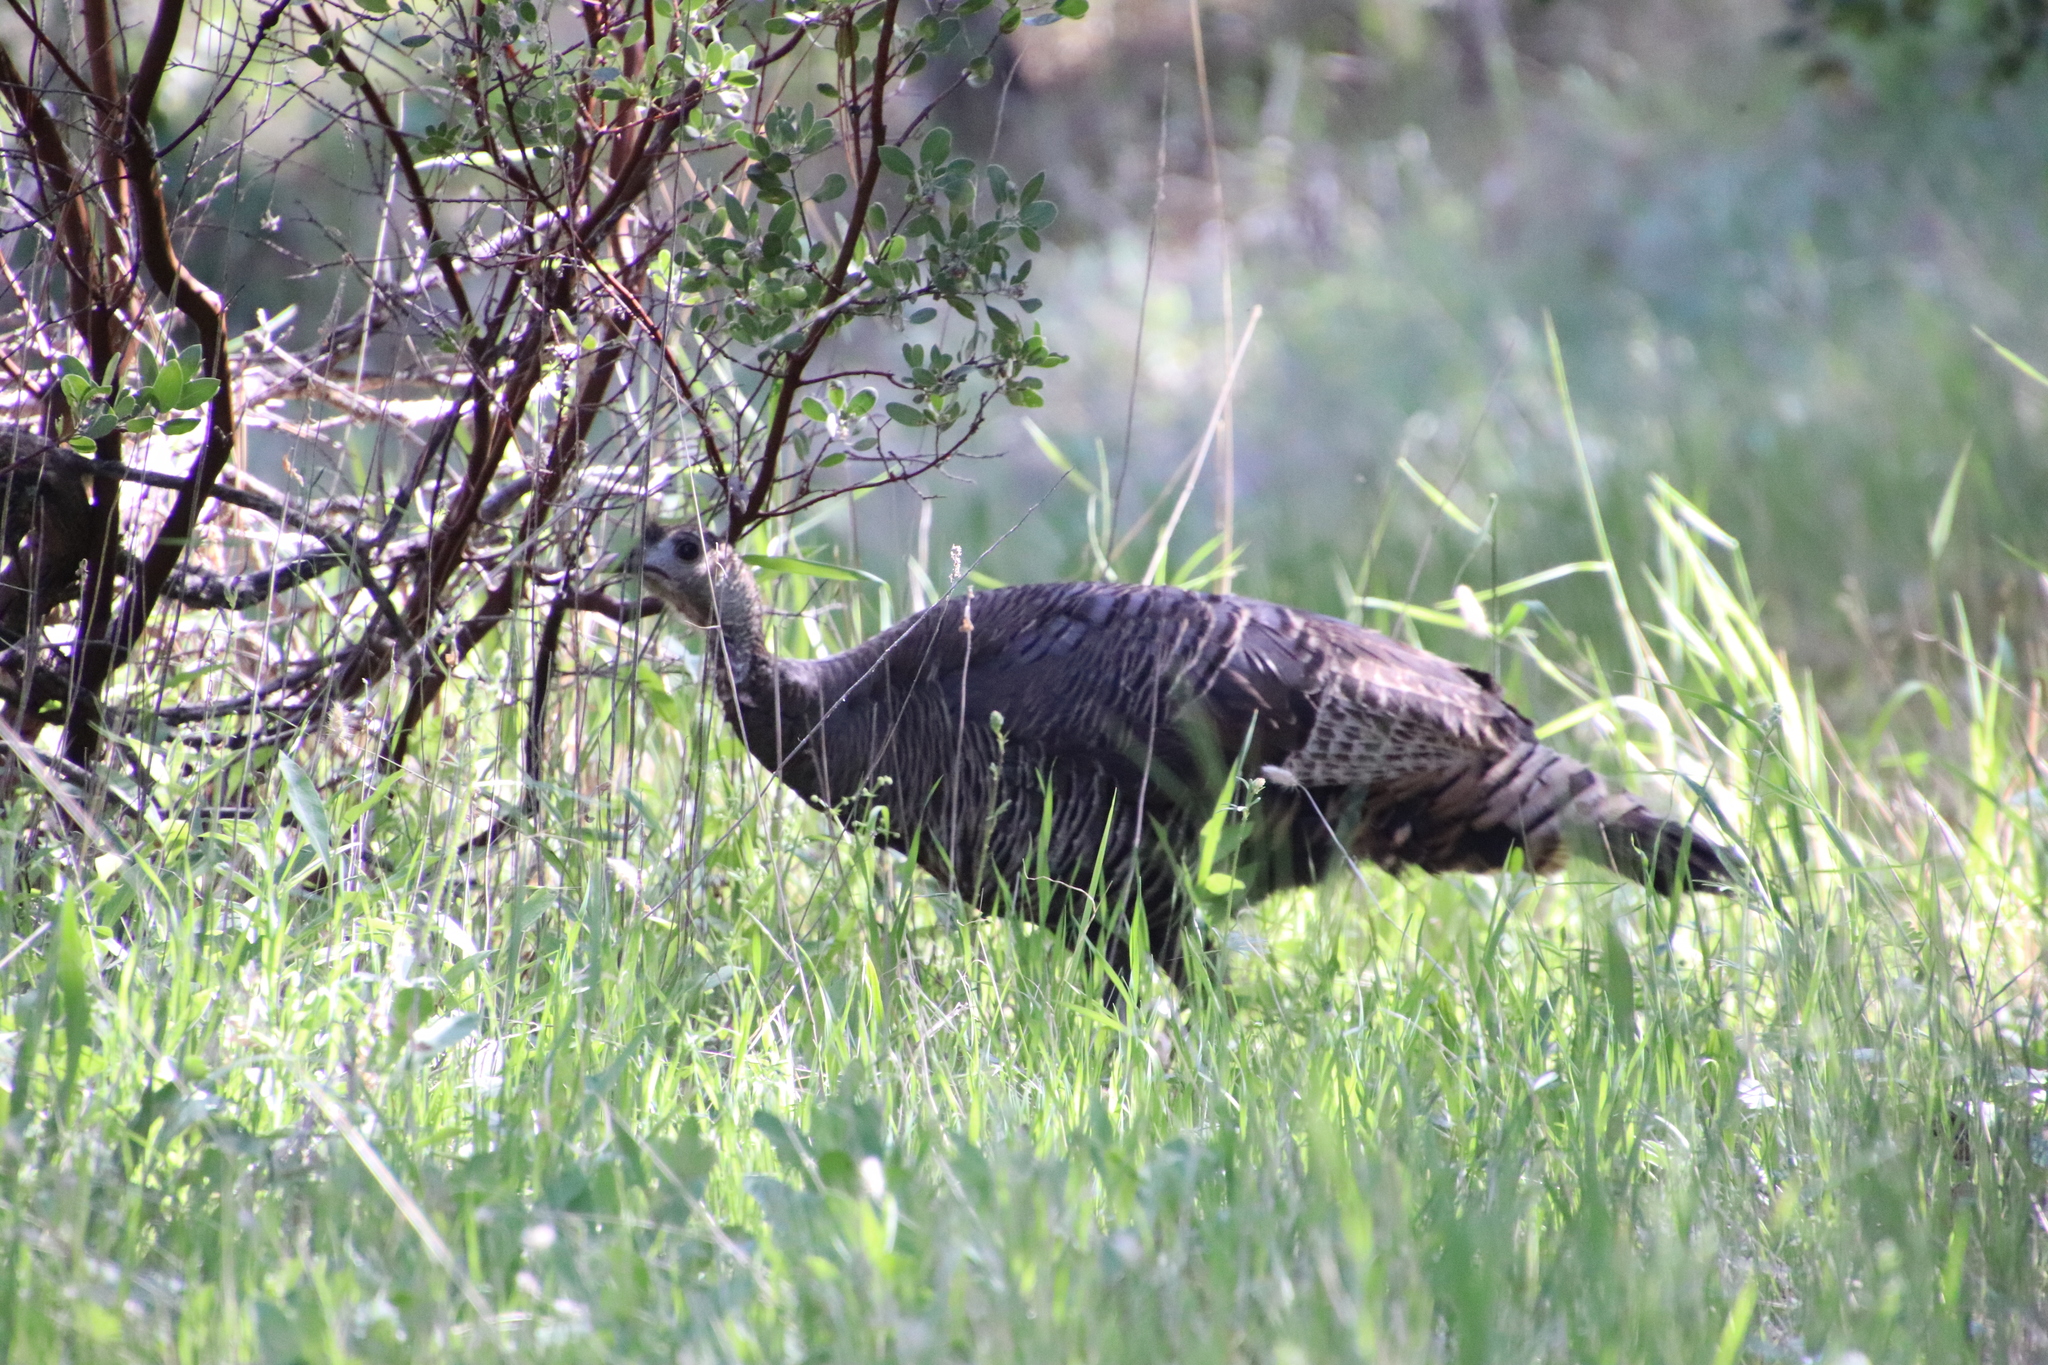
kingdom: Animalia
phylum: Chordata
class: Aves
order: Galliformes
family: Phasianidae
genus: Meleagris
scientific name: Meleagris gallopavo
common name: Wild turkey
